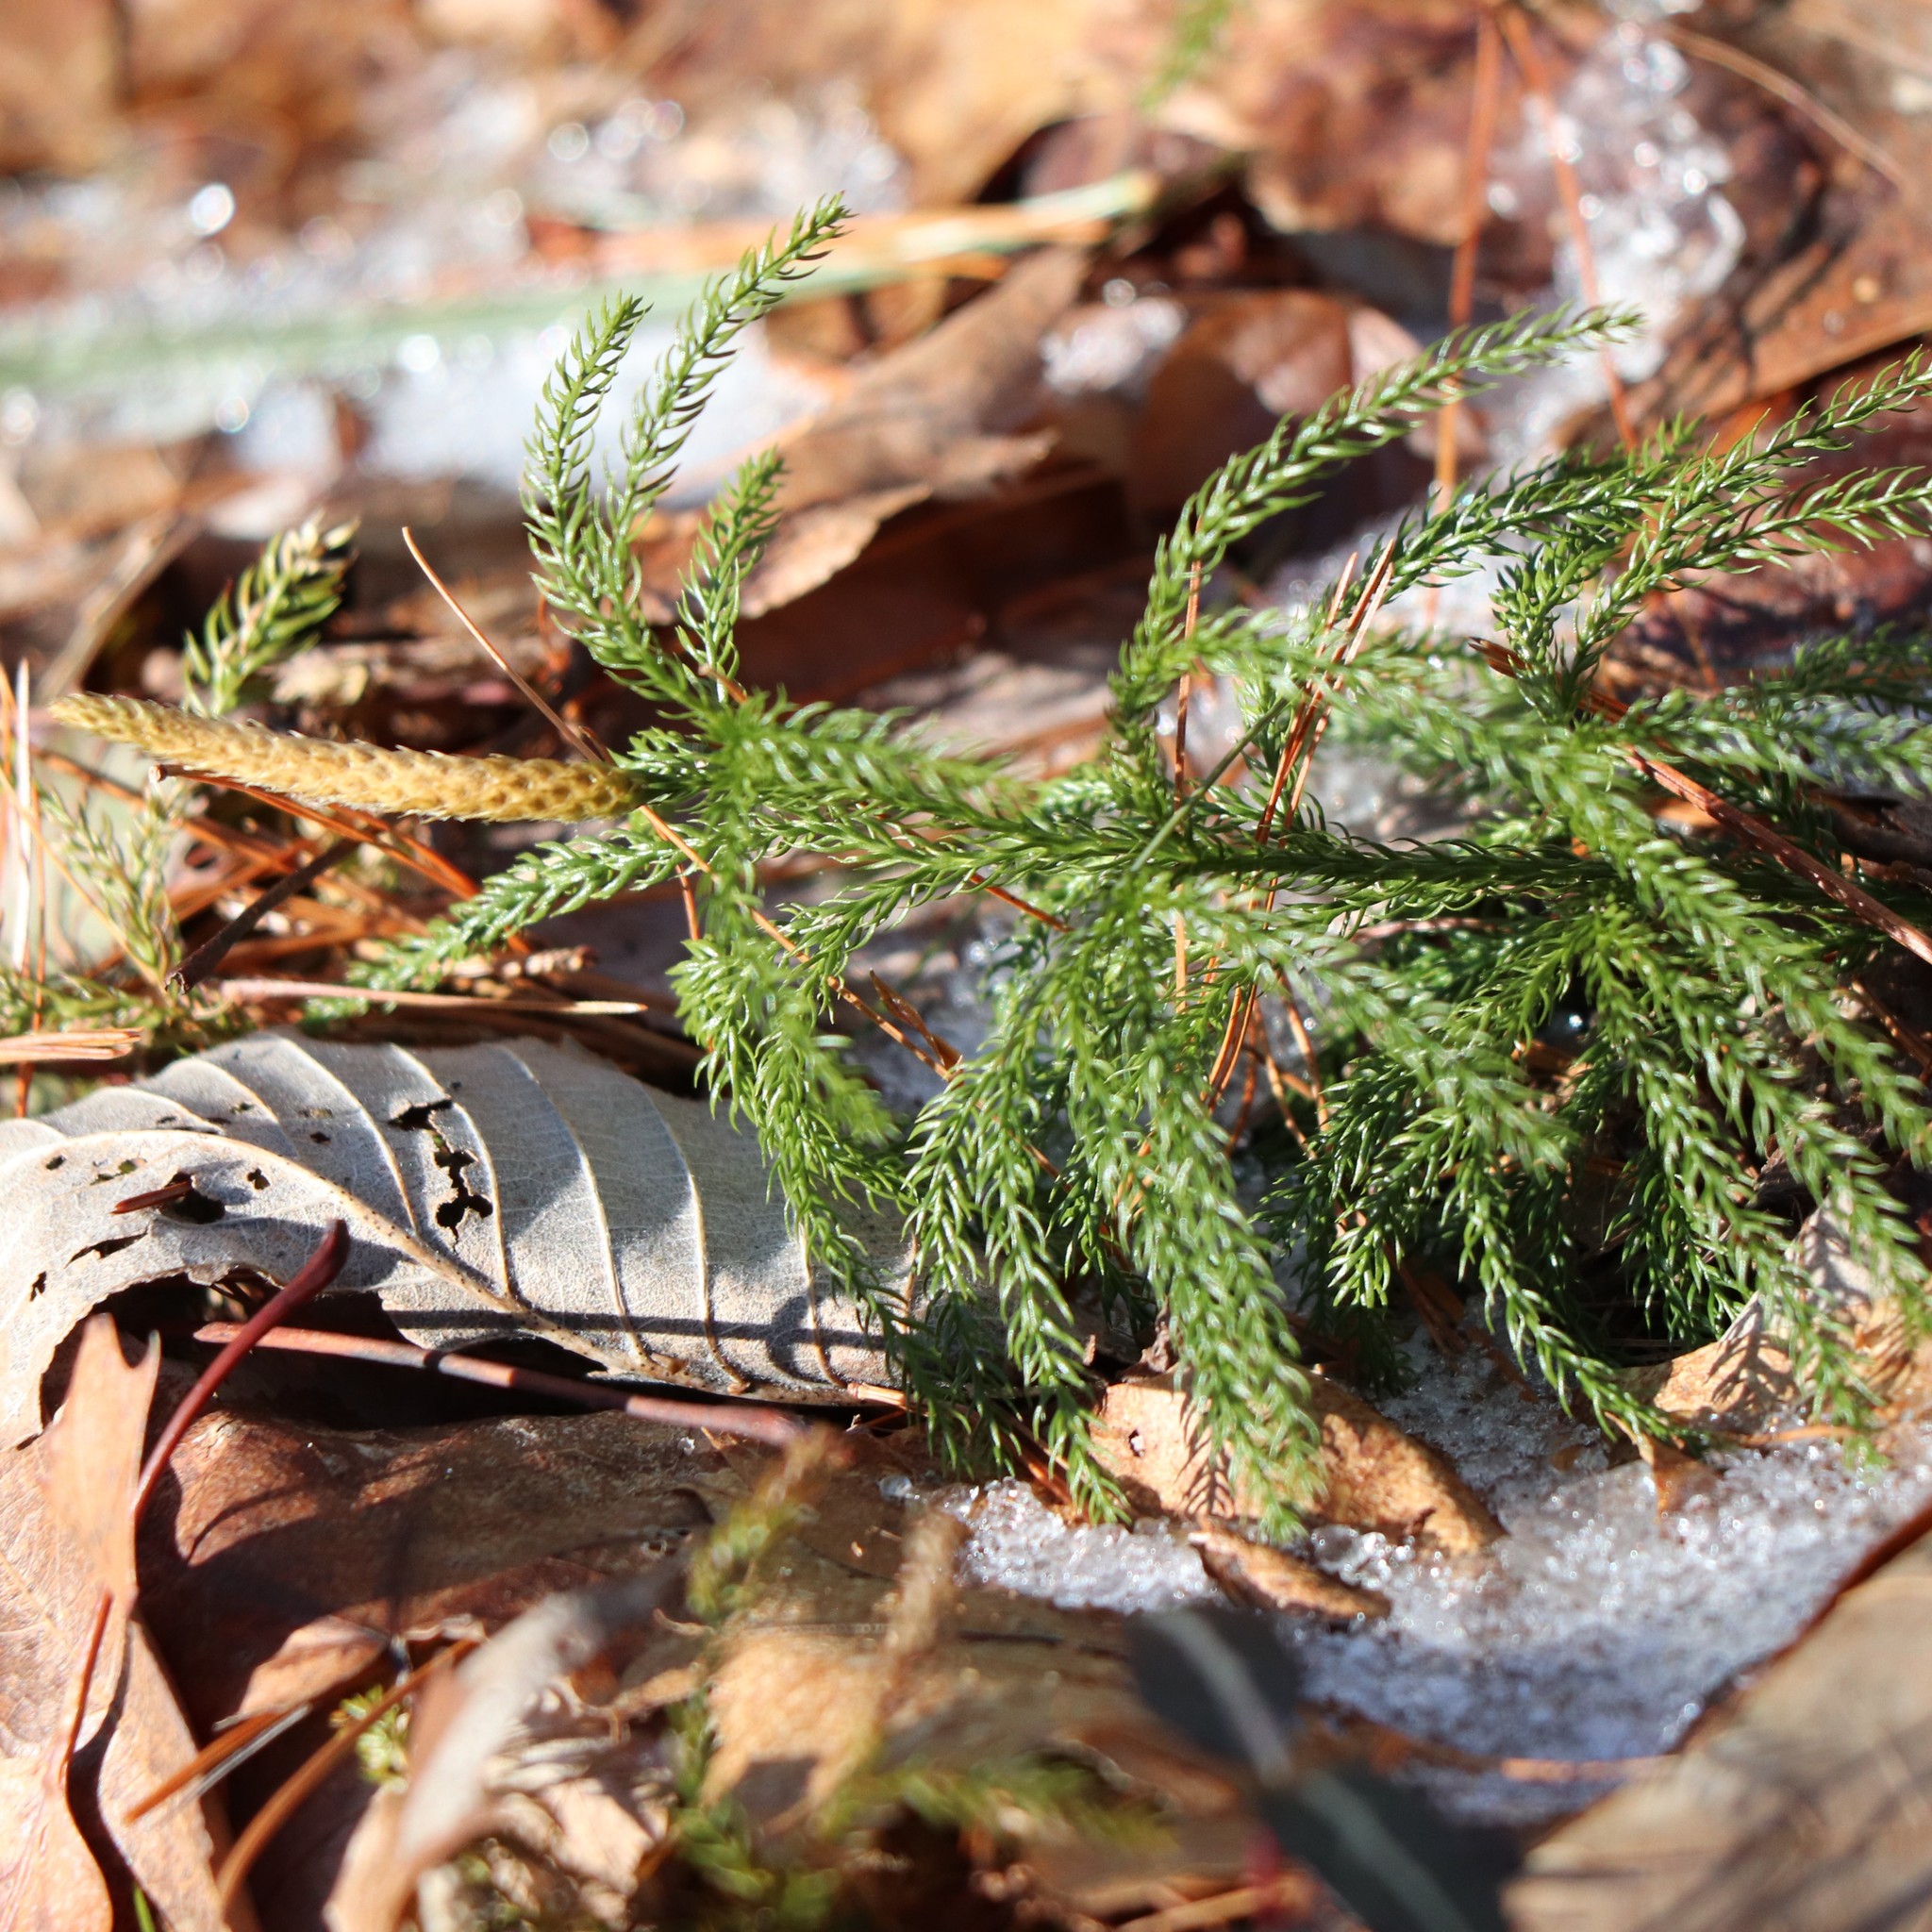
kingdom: Plantae
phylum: Tracheophyta
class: Lycopodiopsida
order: Lycopodiales
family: Lycopodiaceae
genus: Dendrolycopodium
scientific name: Dendrolycopodium hickeyi
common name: Hickey's clubmoss
